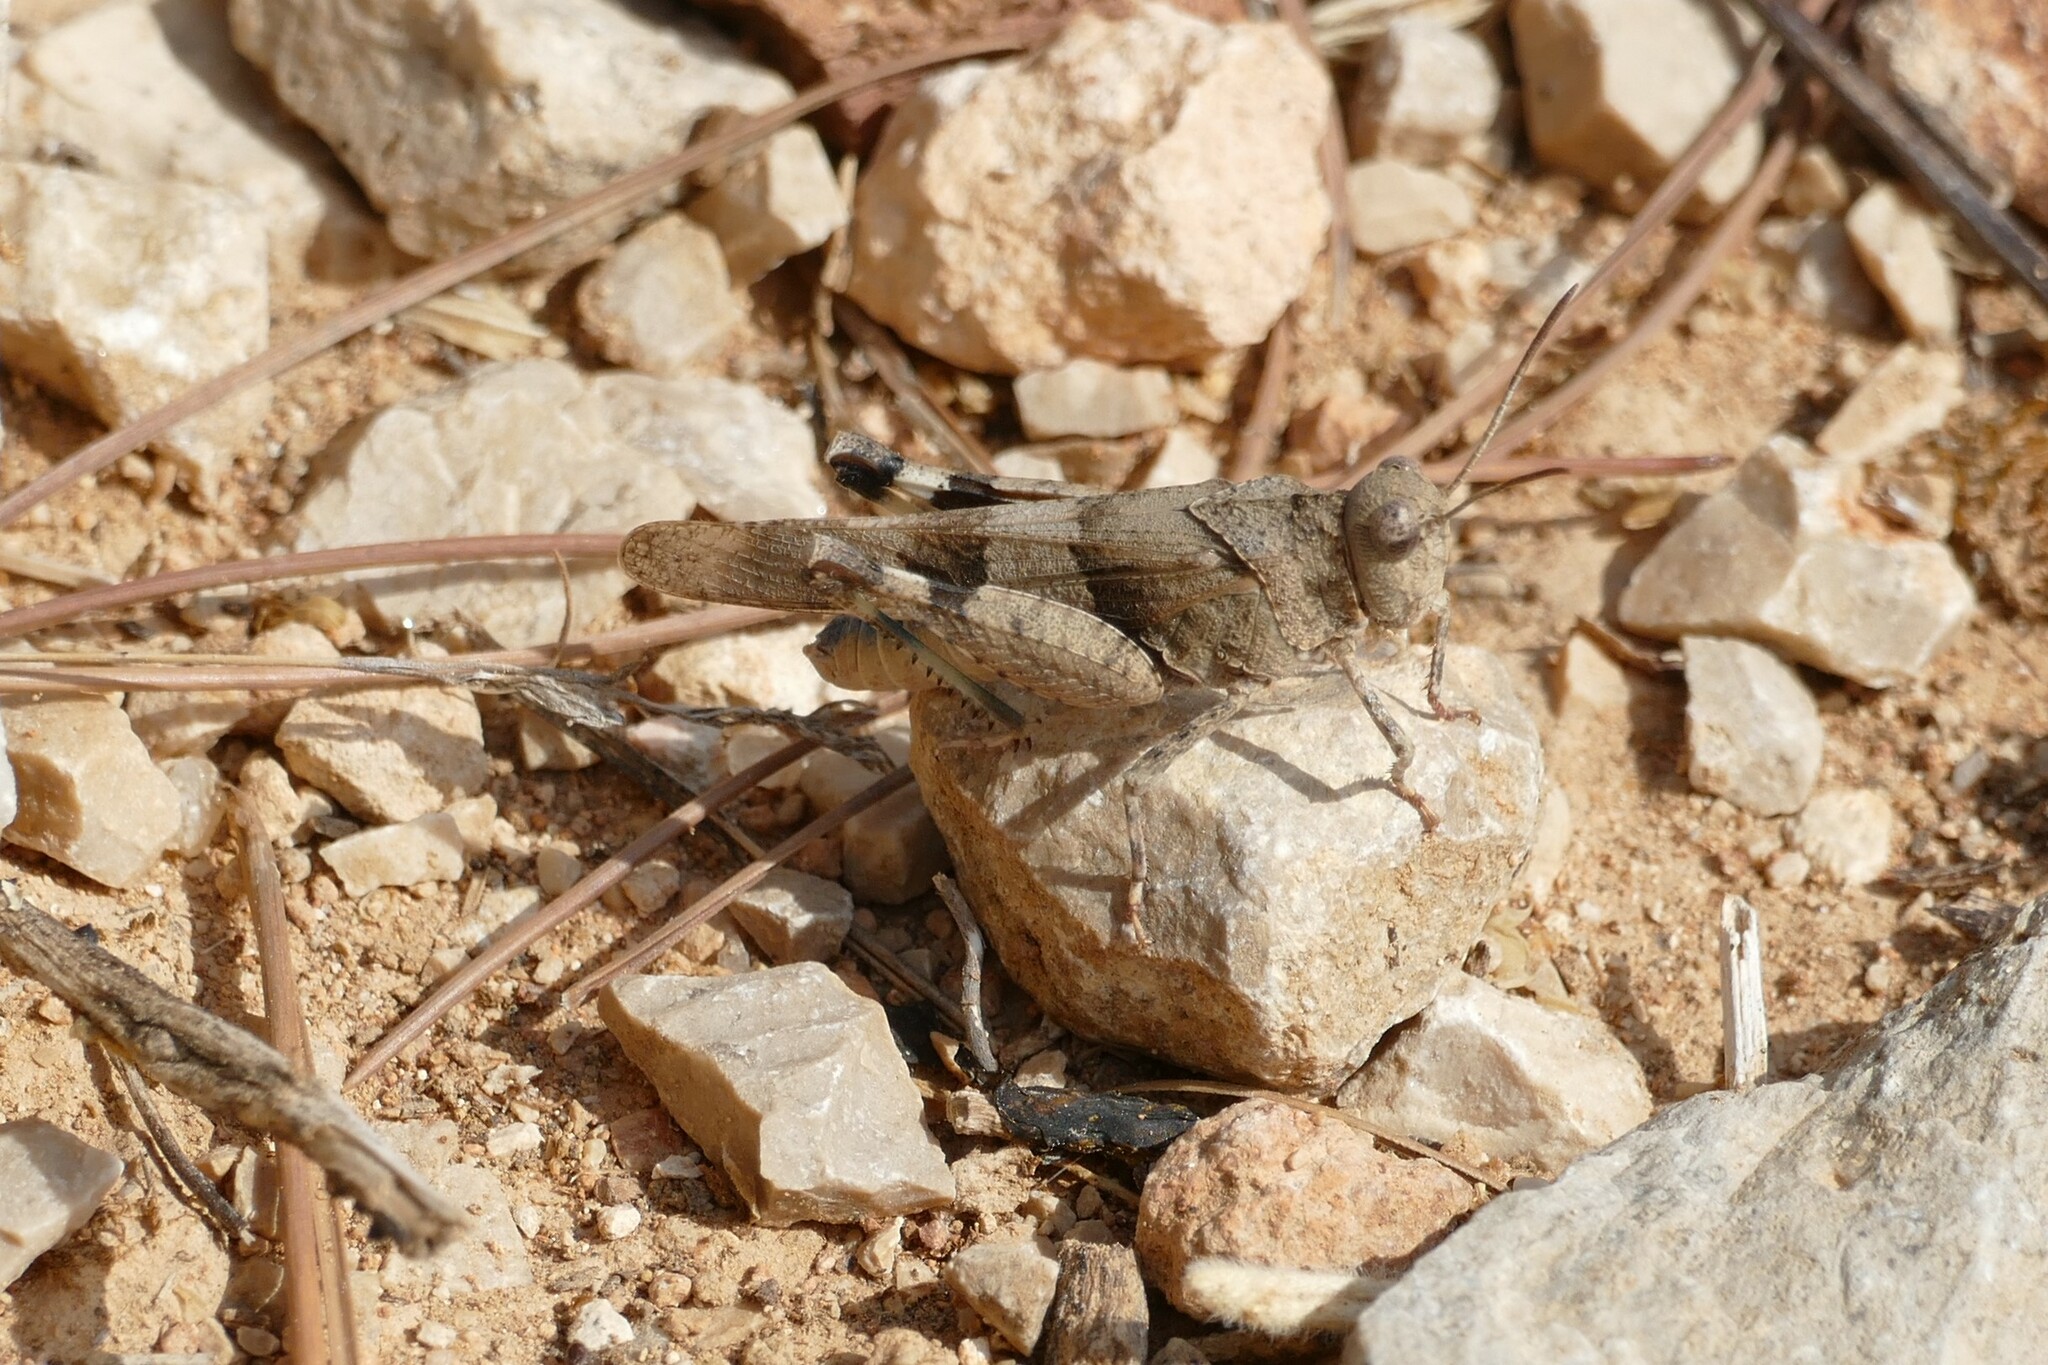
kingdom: Animalia
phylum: Arthropoda
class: Insecta
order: Orthoptera
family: Acrididae
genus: Oedipoda
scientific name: Oedipoda caerulescens
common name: Blue-winged grasshopper
